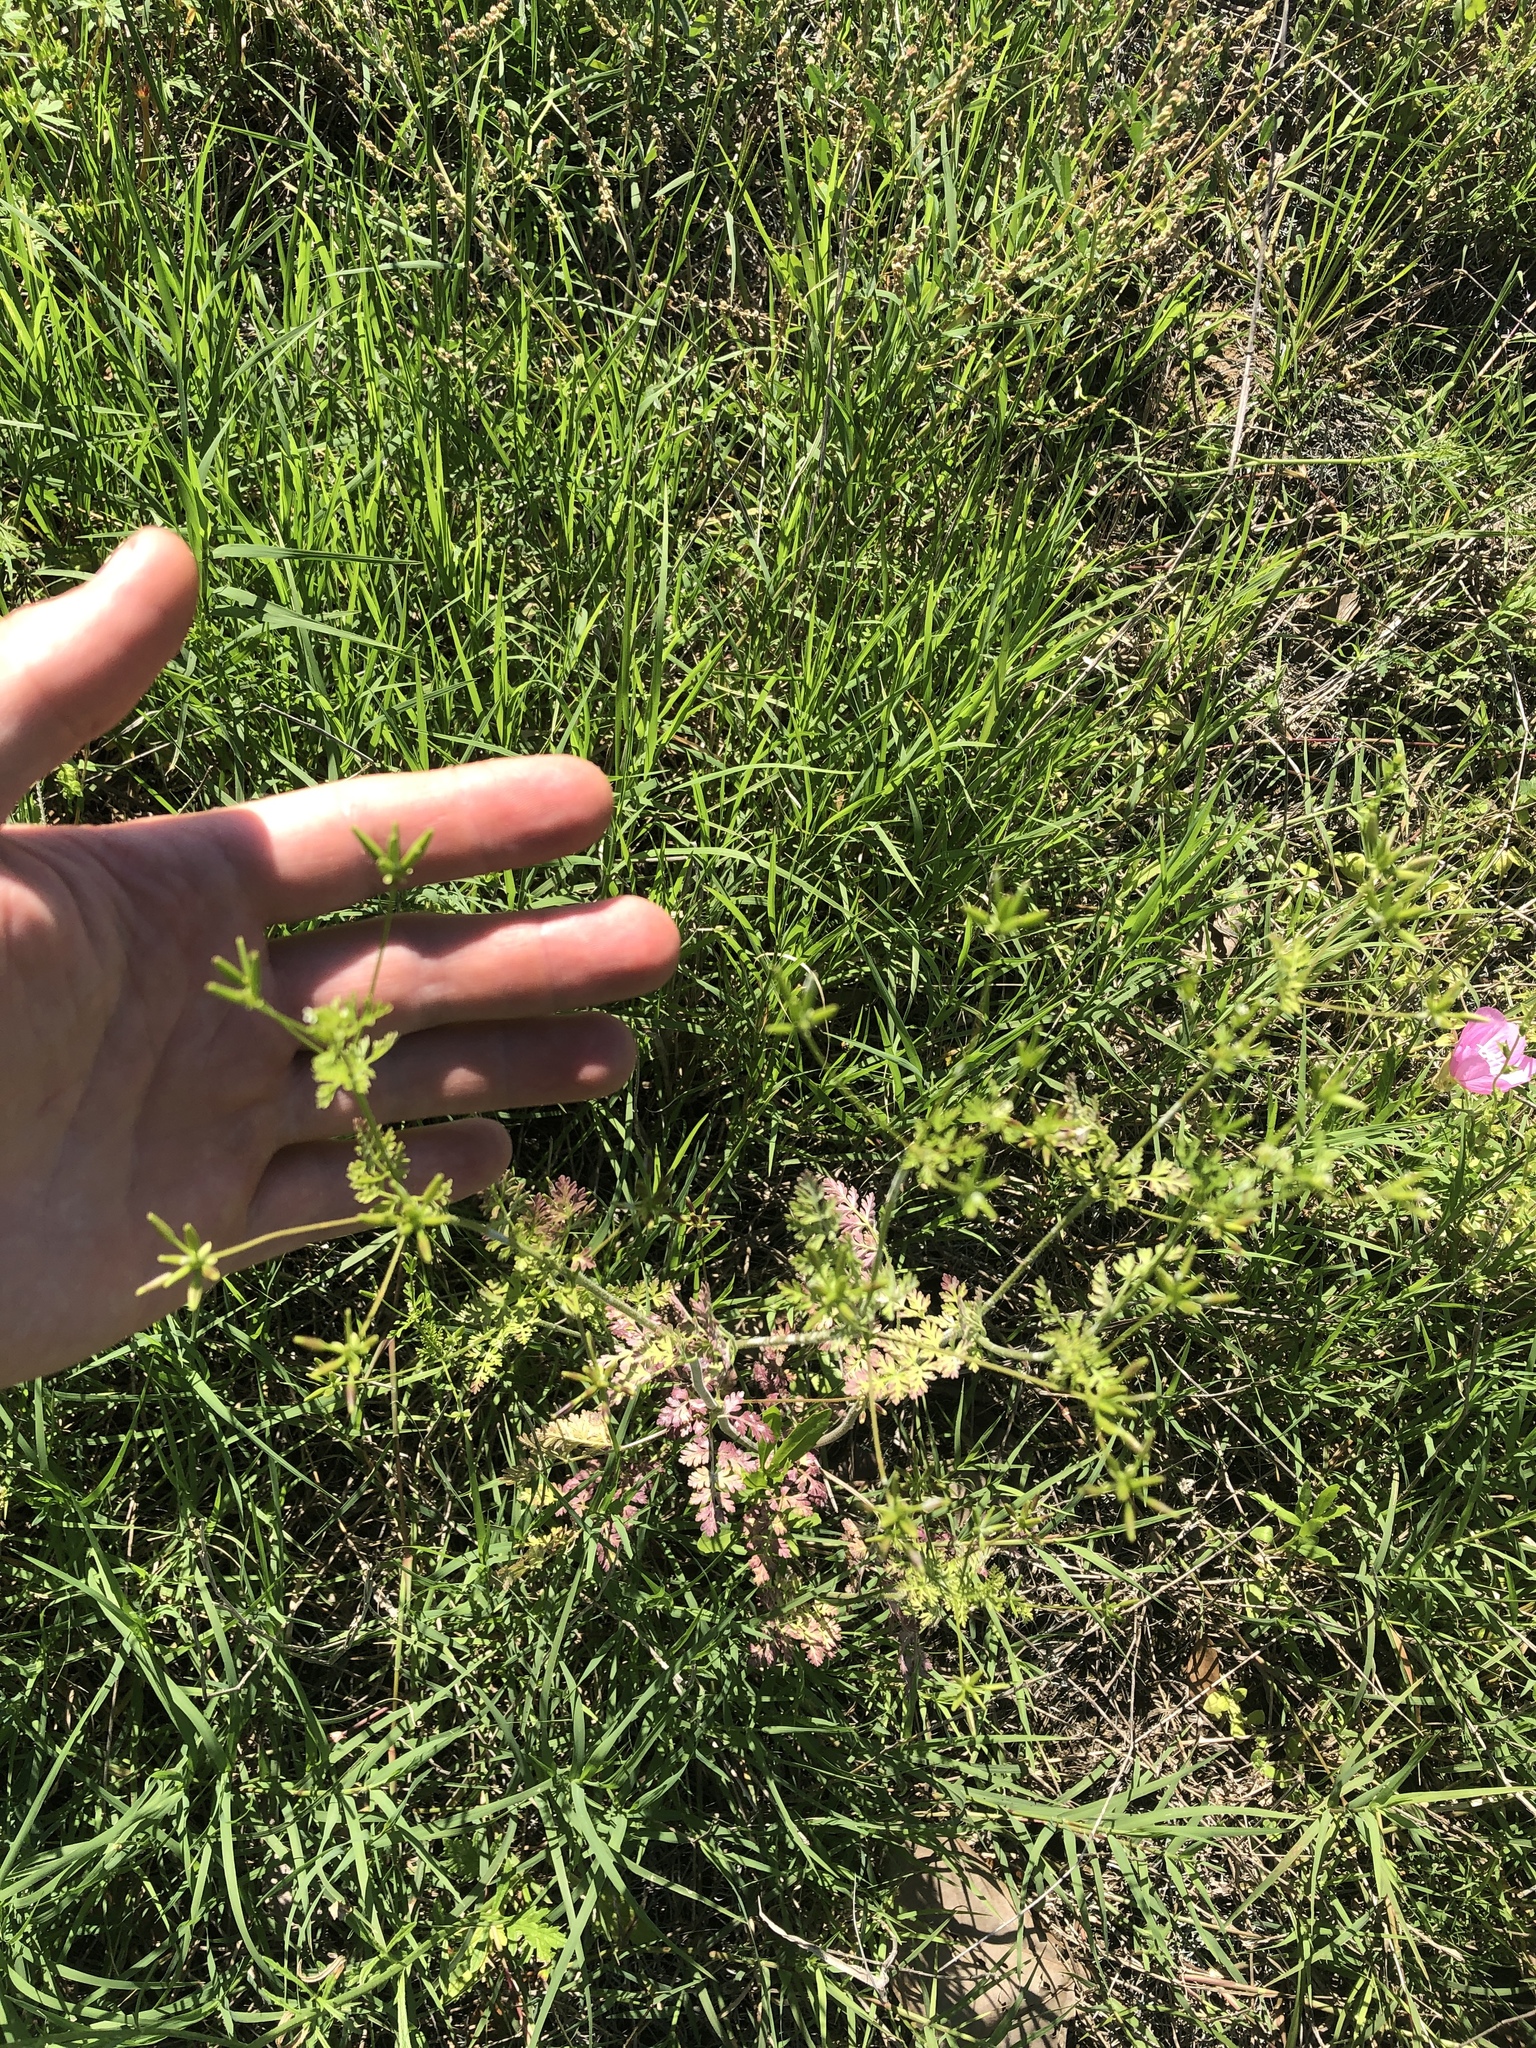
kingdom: Plantae
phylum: Tracheophyta
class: Magnoliopsida
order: Apiales
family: Apiaceae
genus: Chaerophyllum
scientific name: Chaerophyllum tainturieri
